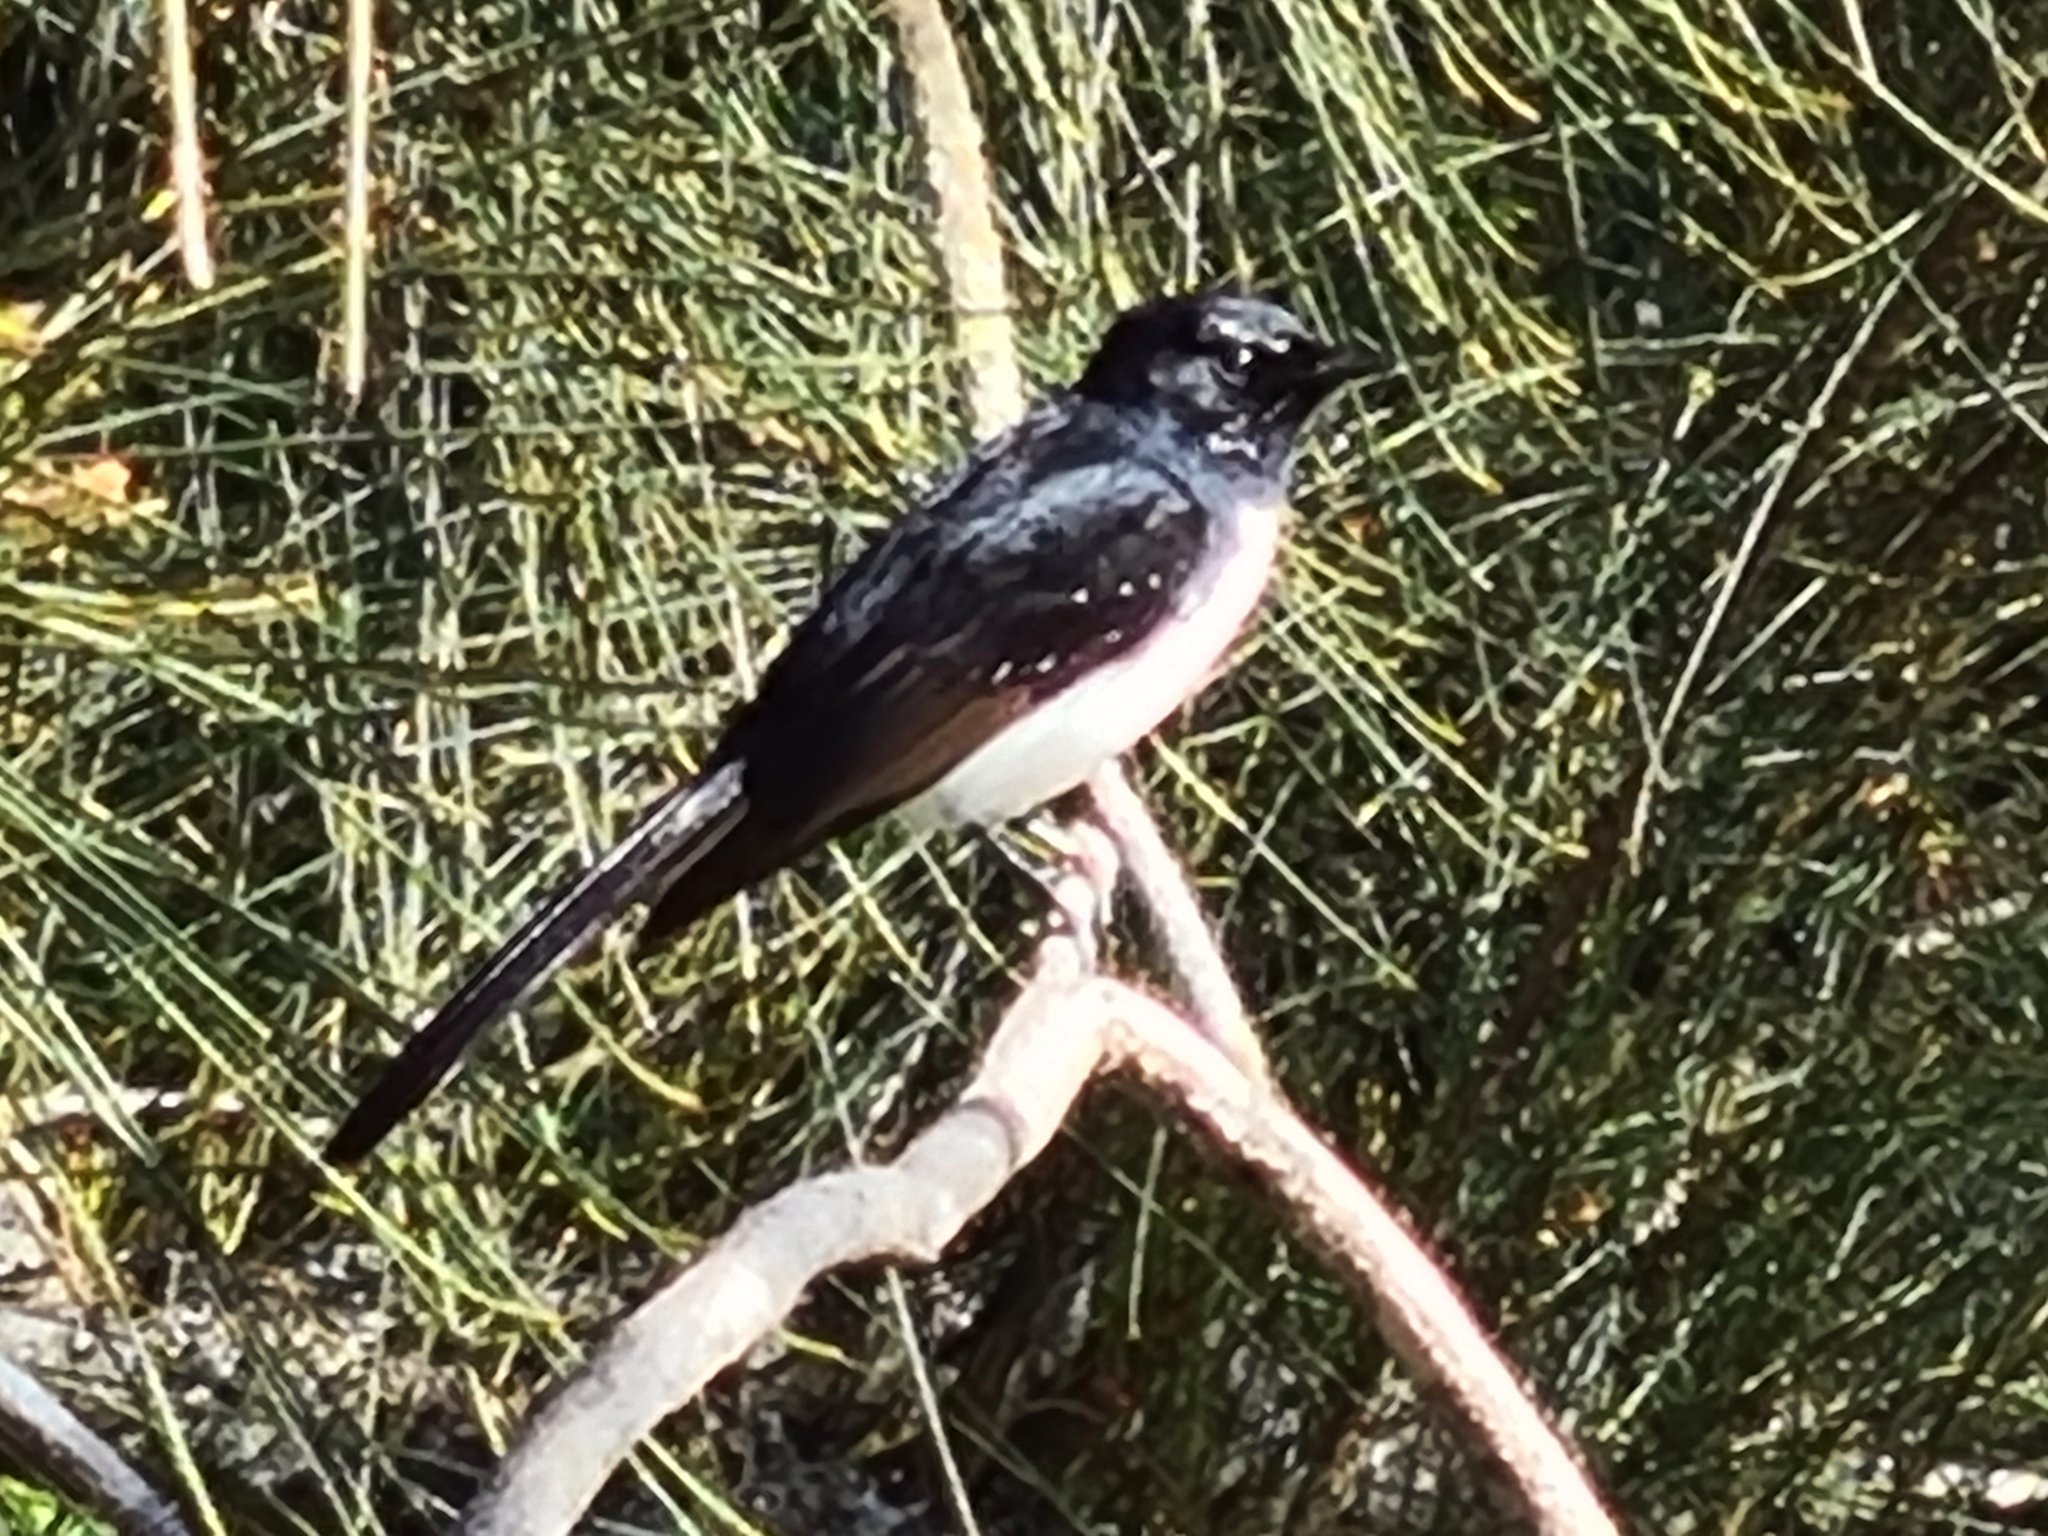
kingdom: Animalia
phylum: Chordata
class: Aves
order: Passeriformes
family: Rhipiduridae
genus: Rhipidura
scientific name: Rhipidura leucophrys
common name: Willie wagtail
